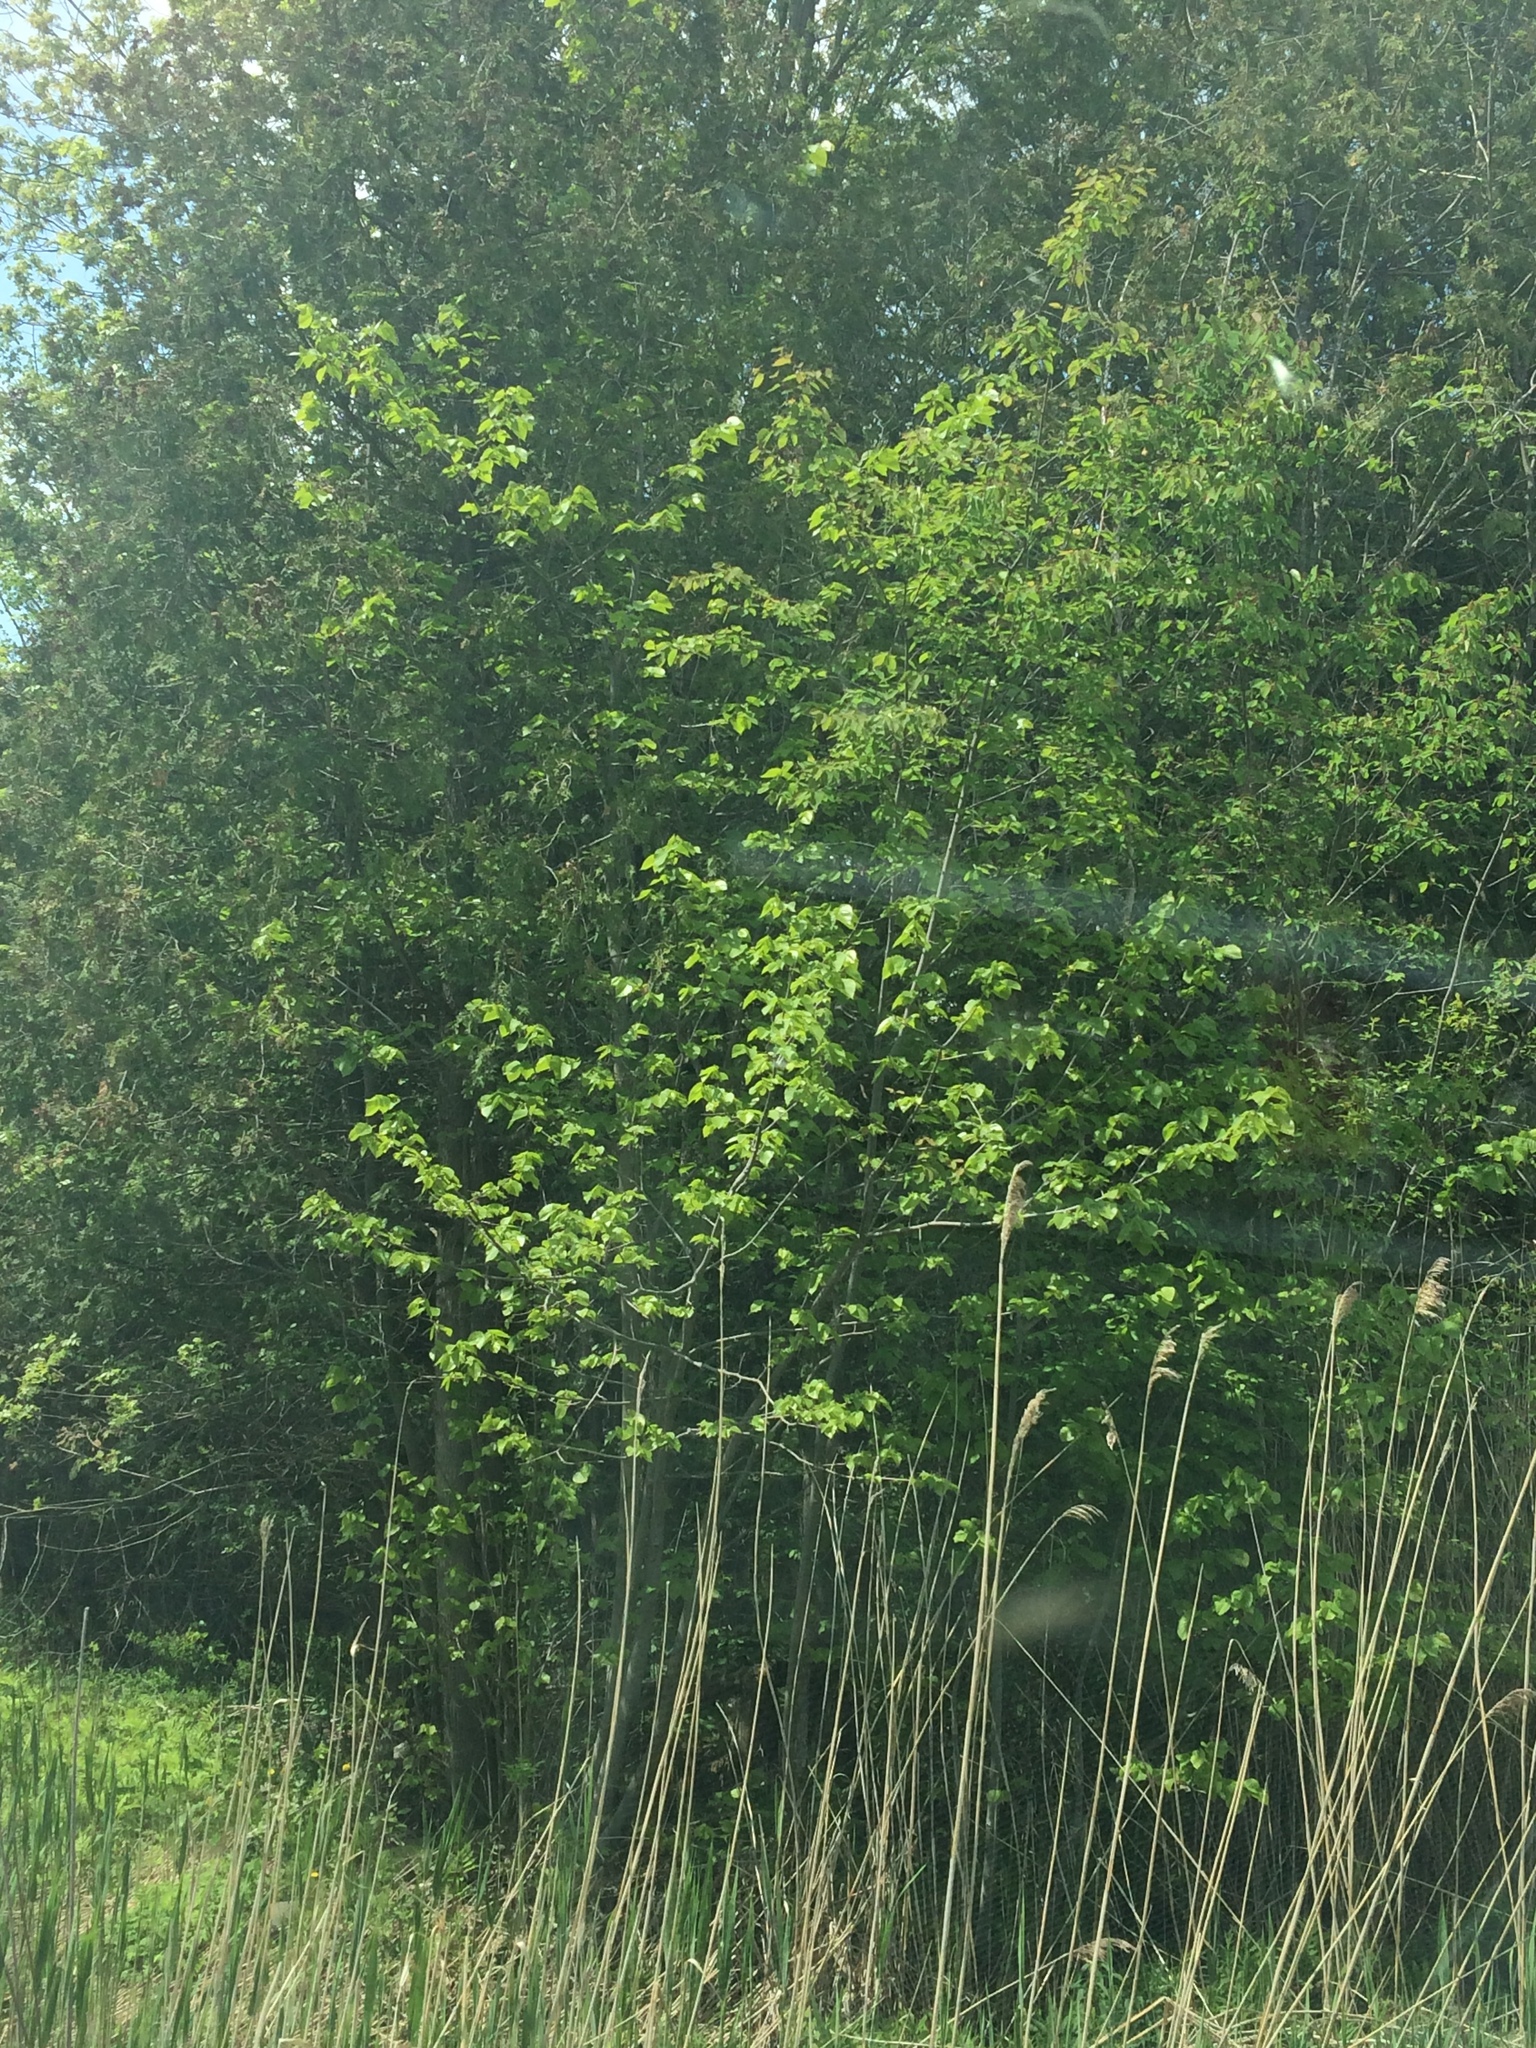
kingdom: Plantae
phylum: Tracheophyta
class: Magnoliopsida
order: Malvales
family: Malvaceae
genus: Tilia
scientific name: Tilia americana
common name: Basswood
